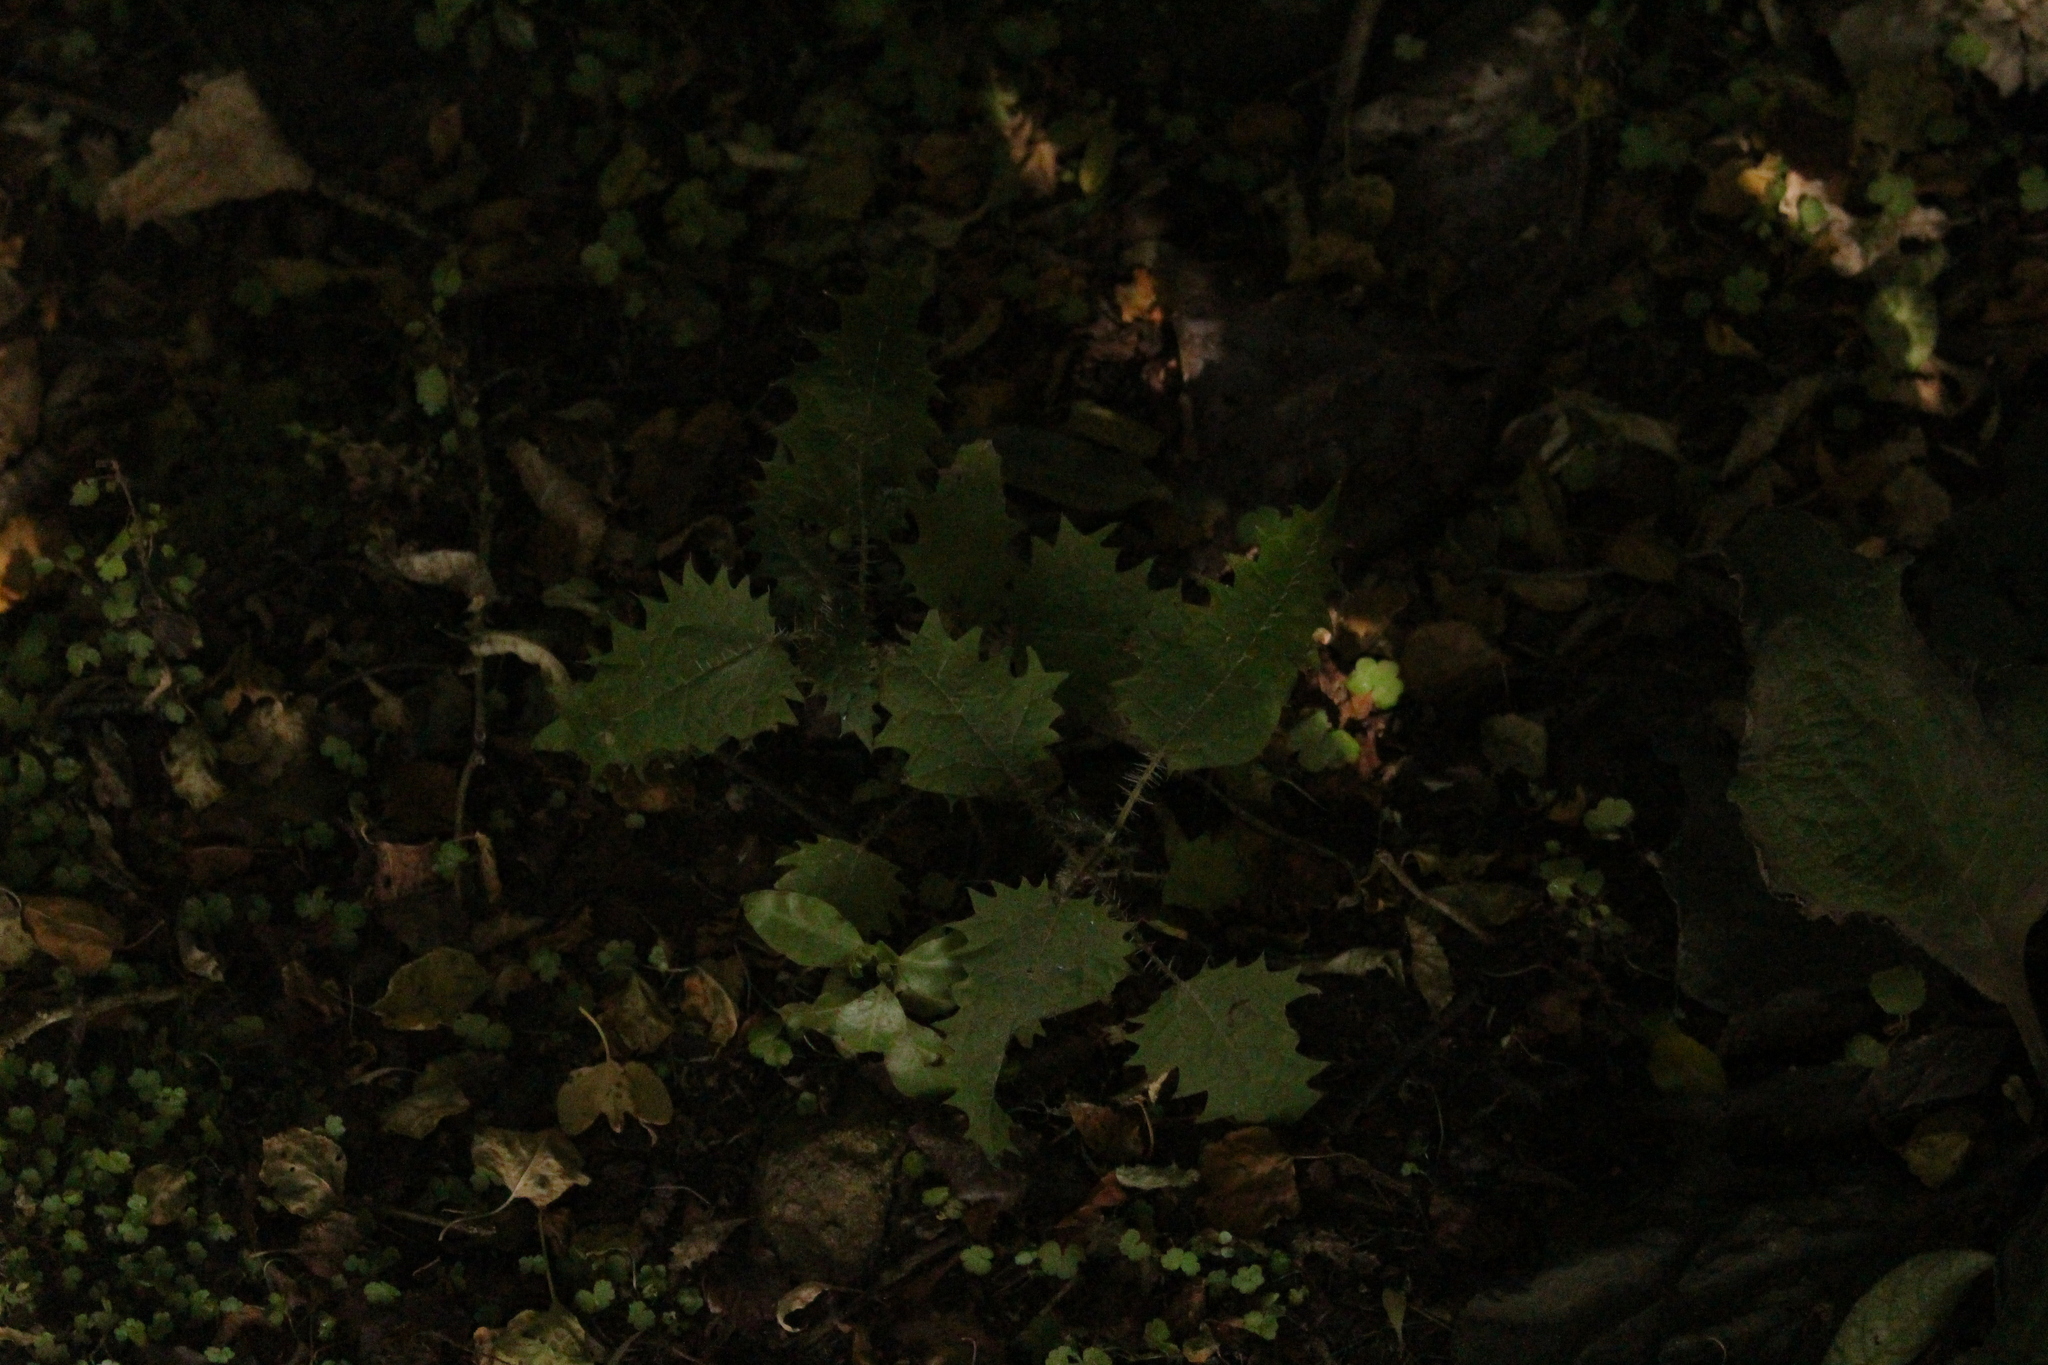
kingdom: Plantae
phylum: Tracheophyta
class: Magnoliopsida
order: Rosales
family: Urticaceae
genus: Urtica
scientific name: Urtica ferox
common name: Tree nettle
